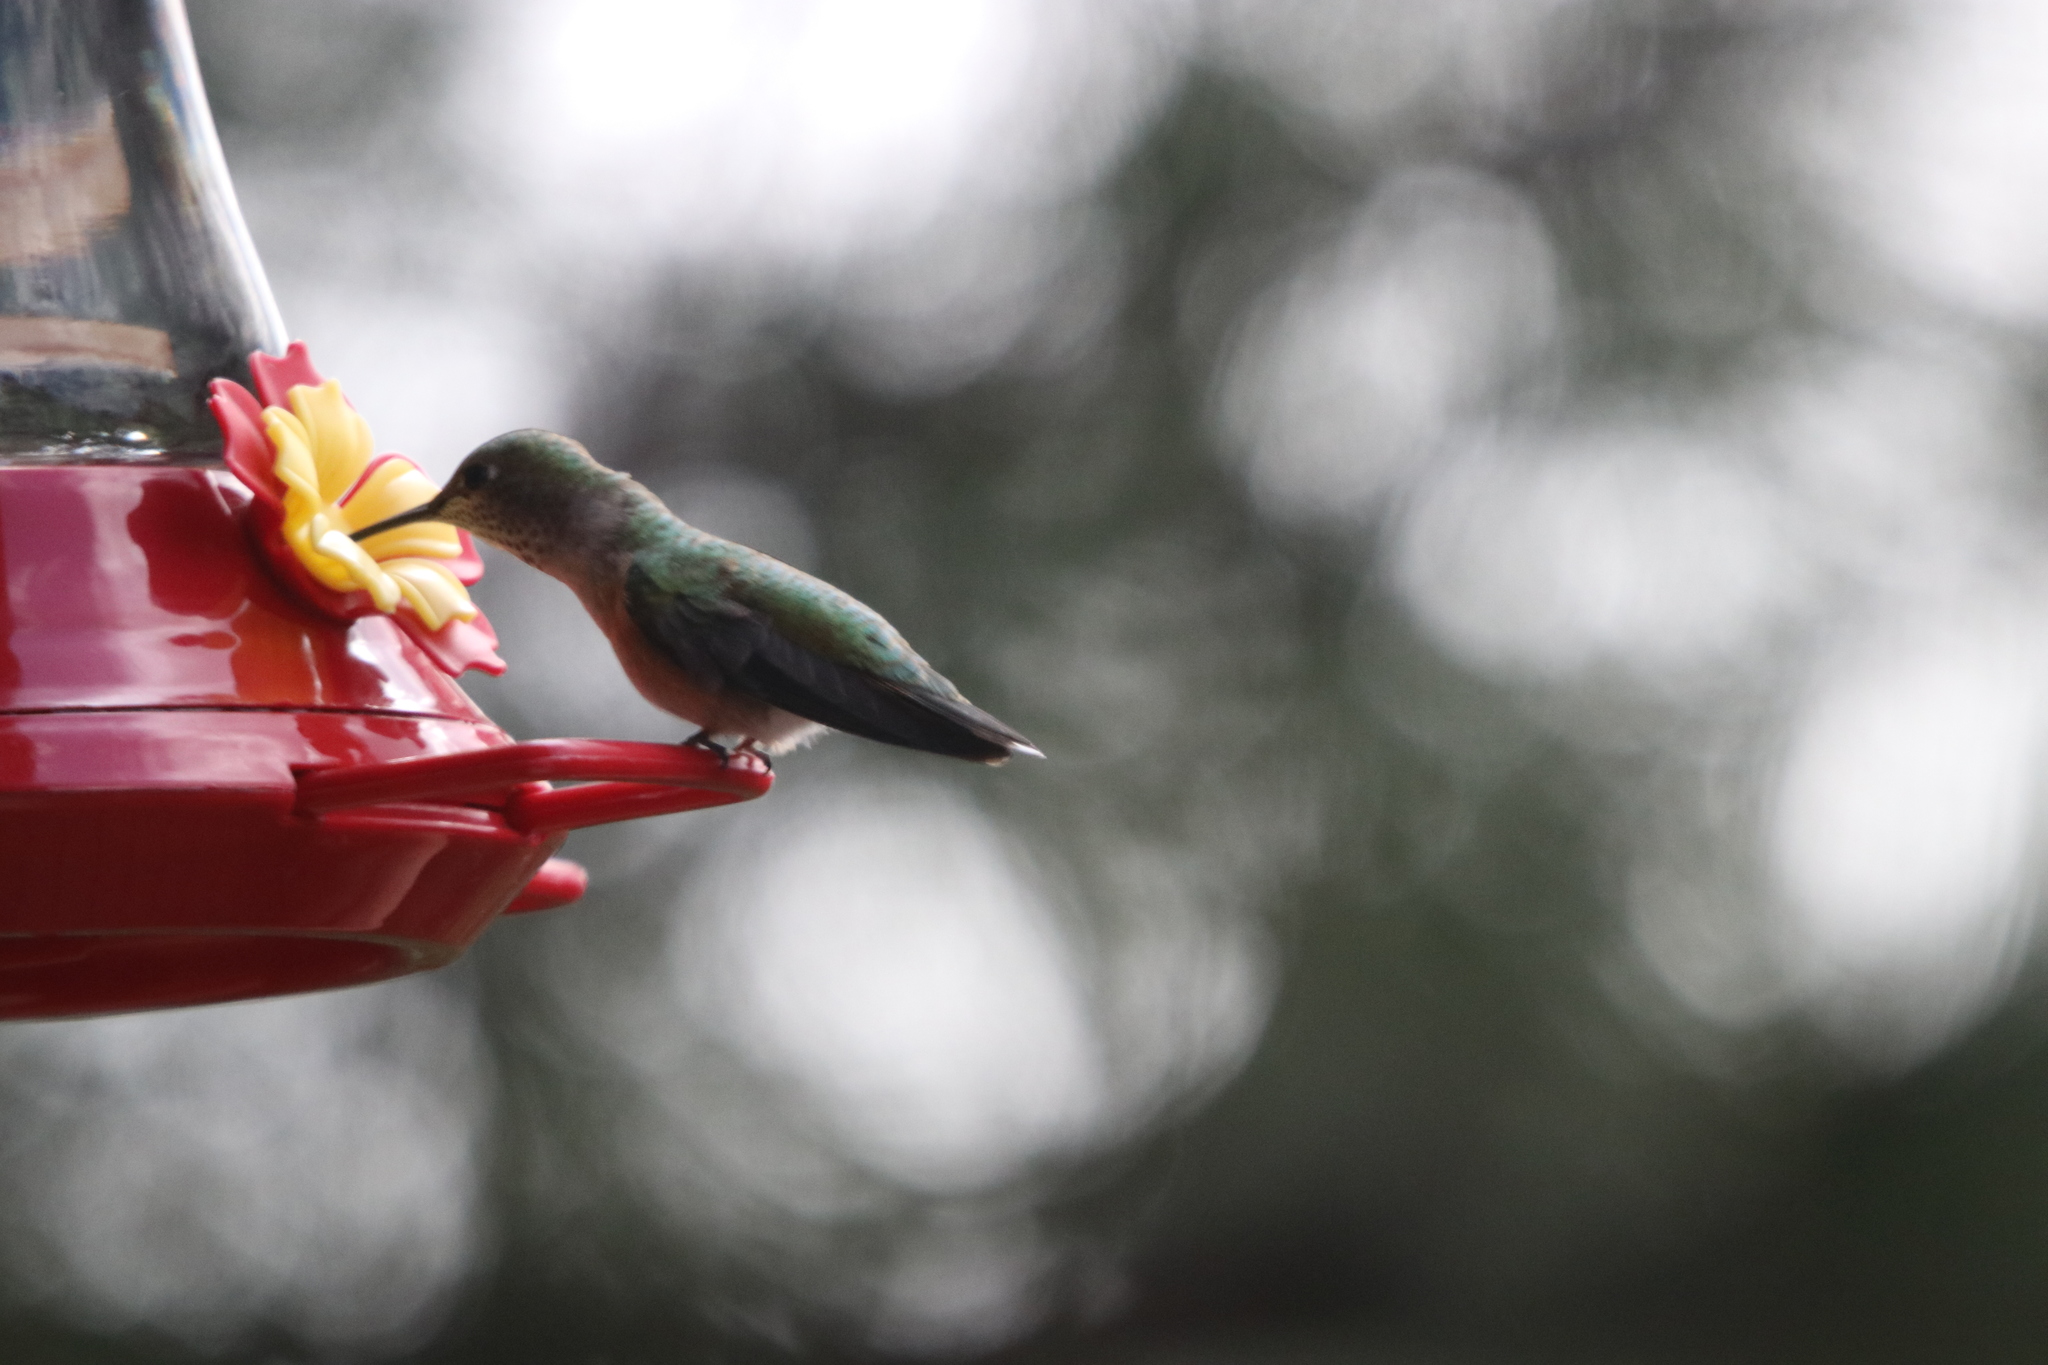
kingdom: Animalia
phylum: Chordata
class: Aves
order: Apodiformes
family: Trochilidae
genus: Selasphorus
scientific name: Selasphorus platycercus
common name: Broad-tailed hummingbird
